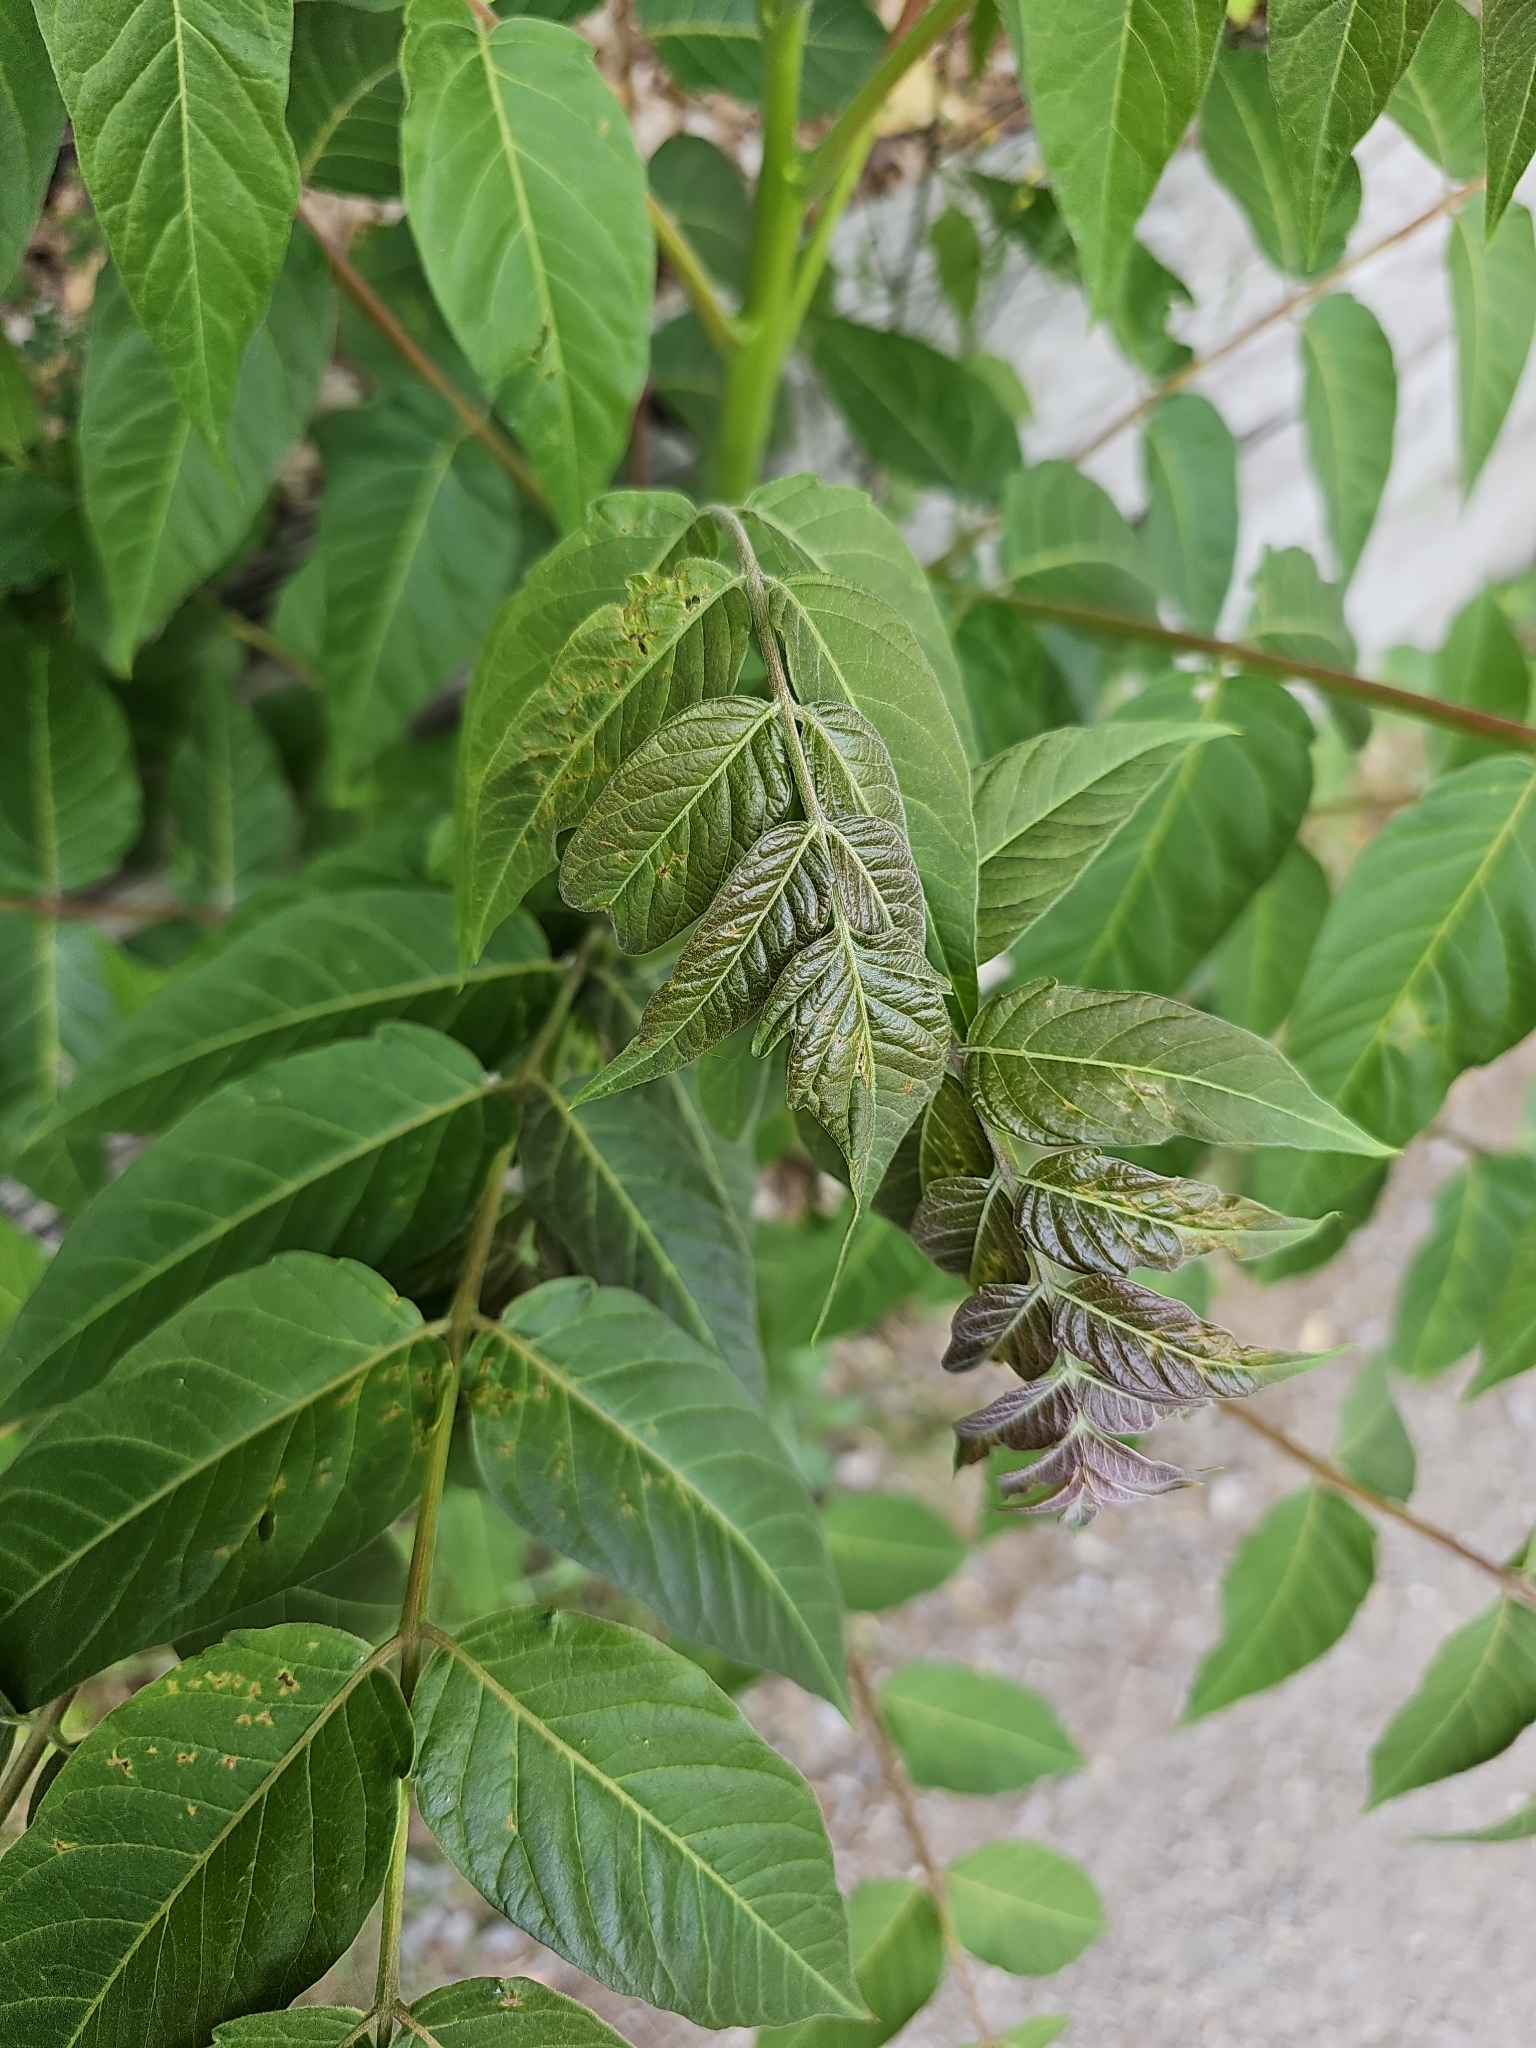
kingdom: Plantae
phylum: Tracheophyta
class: Magnoliopsida
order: Sapindales
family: Simaroubaceae
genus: Ailanthus
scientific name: Ailanthus altissima
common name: Tree-of-heaven
